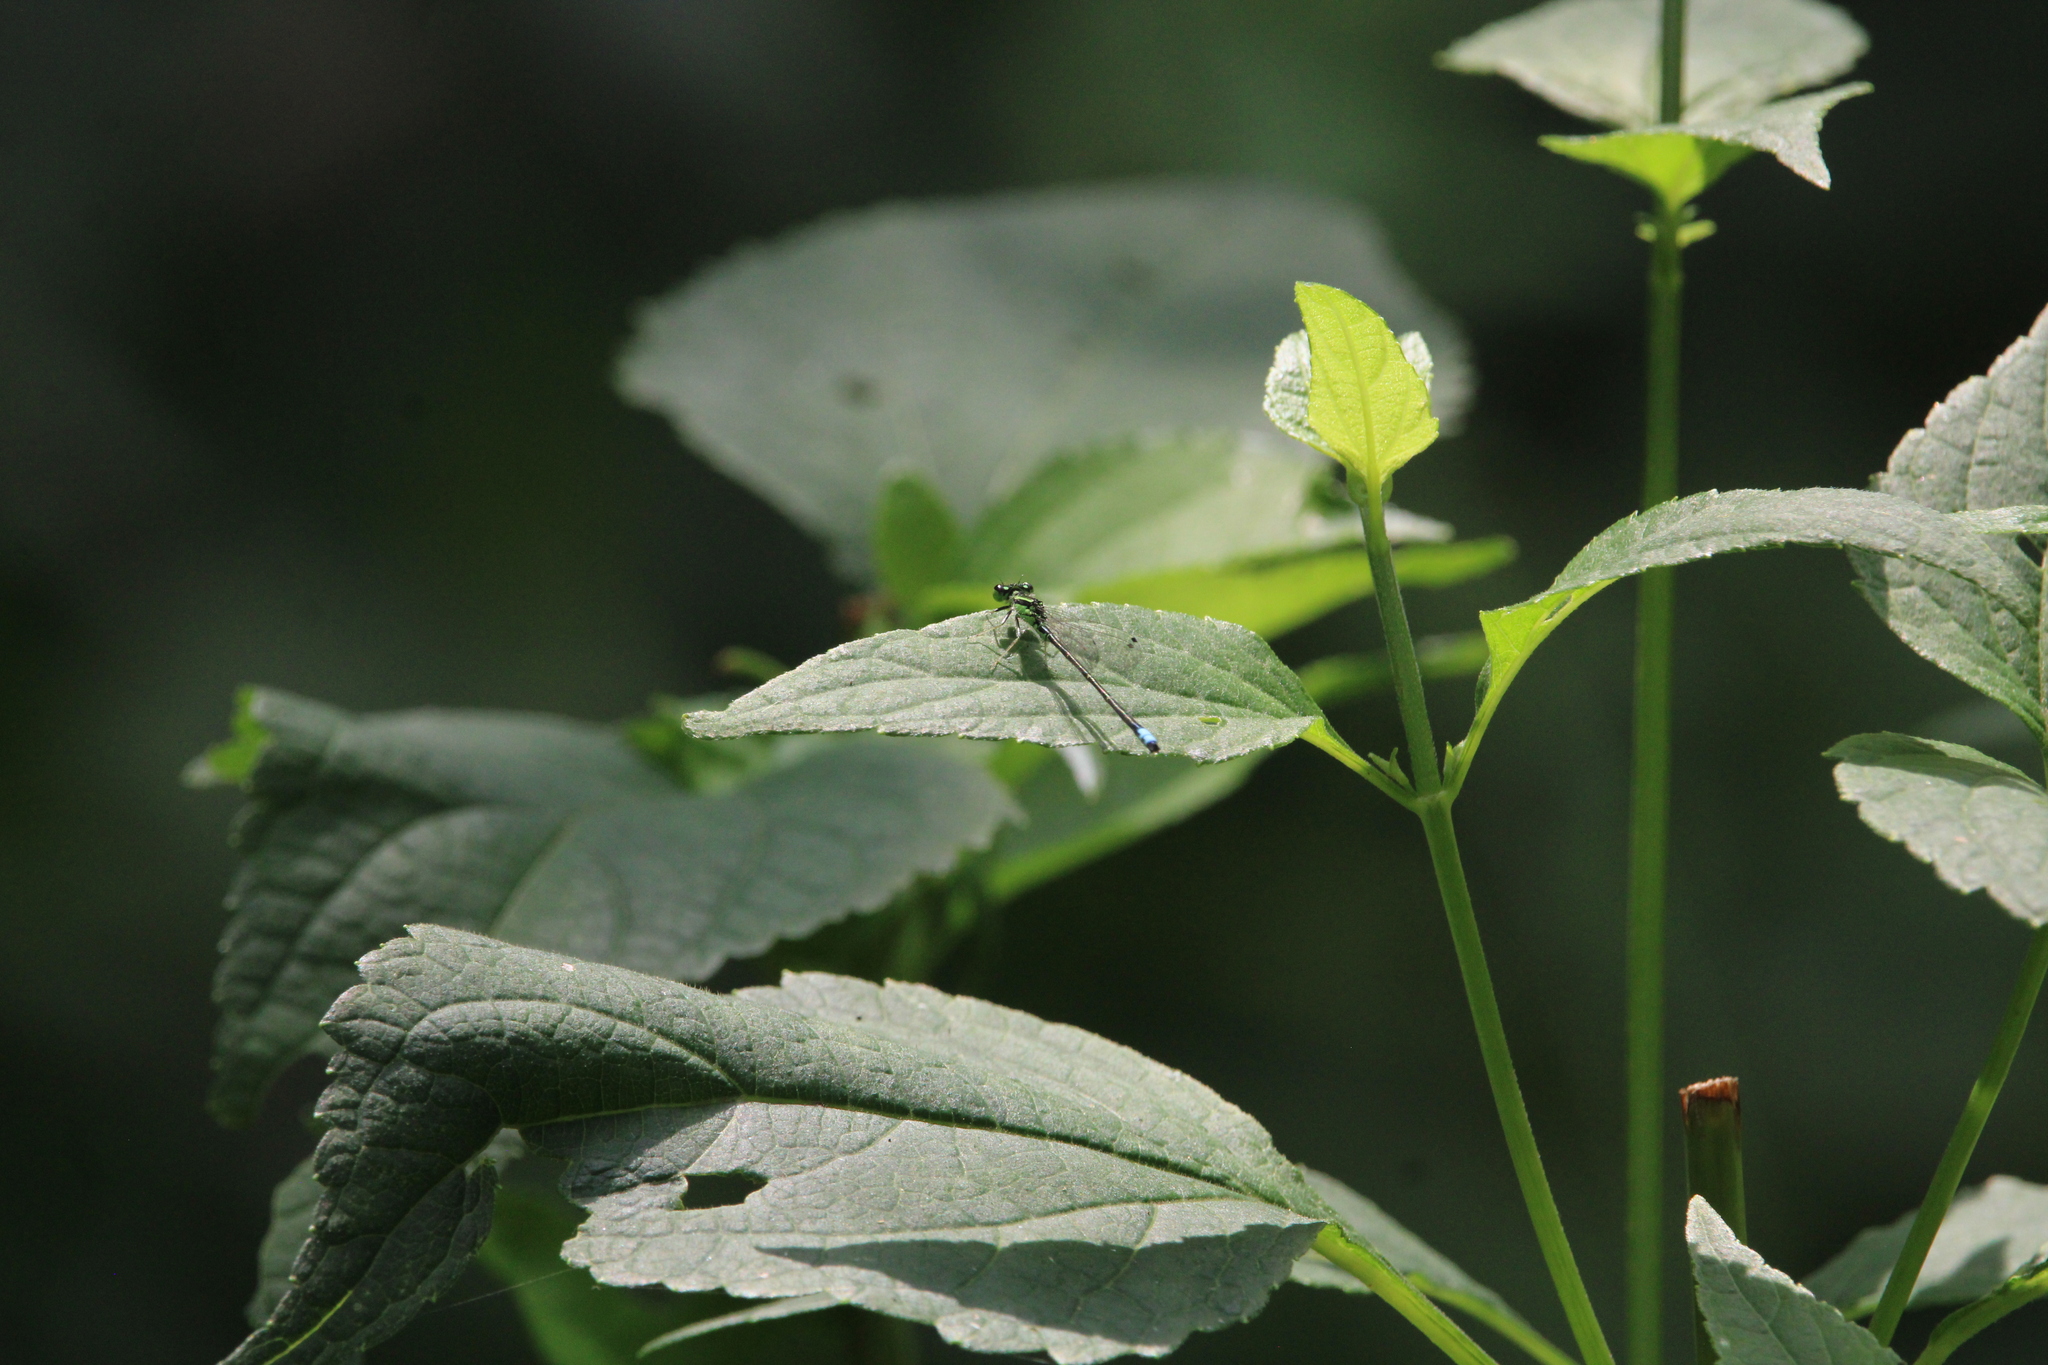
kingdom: Animalia
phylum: Arthropoda
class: Insecta
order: Odonata
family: Coenagrionidae
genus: Ischnura
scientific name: Ischnura verticalis
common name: Eastern forktail
